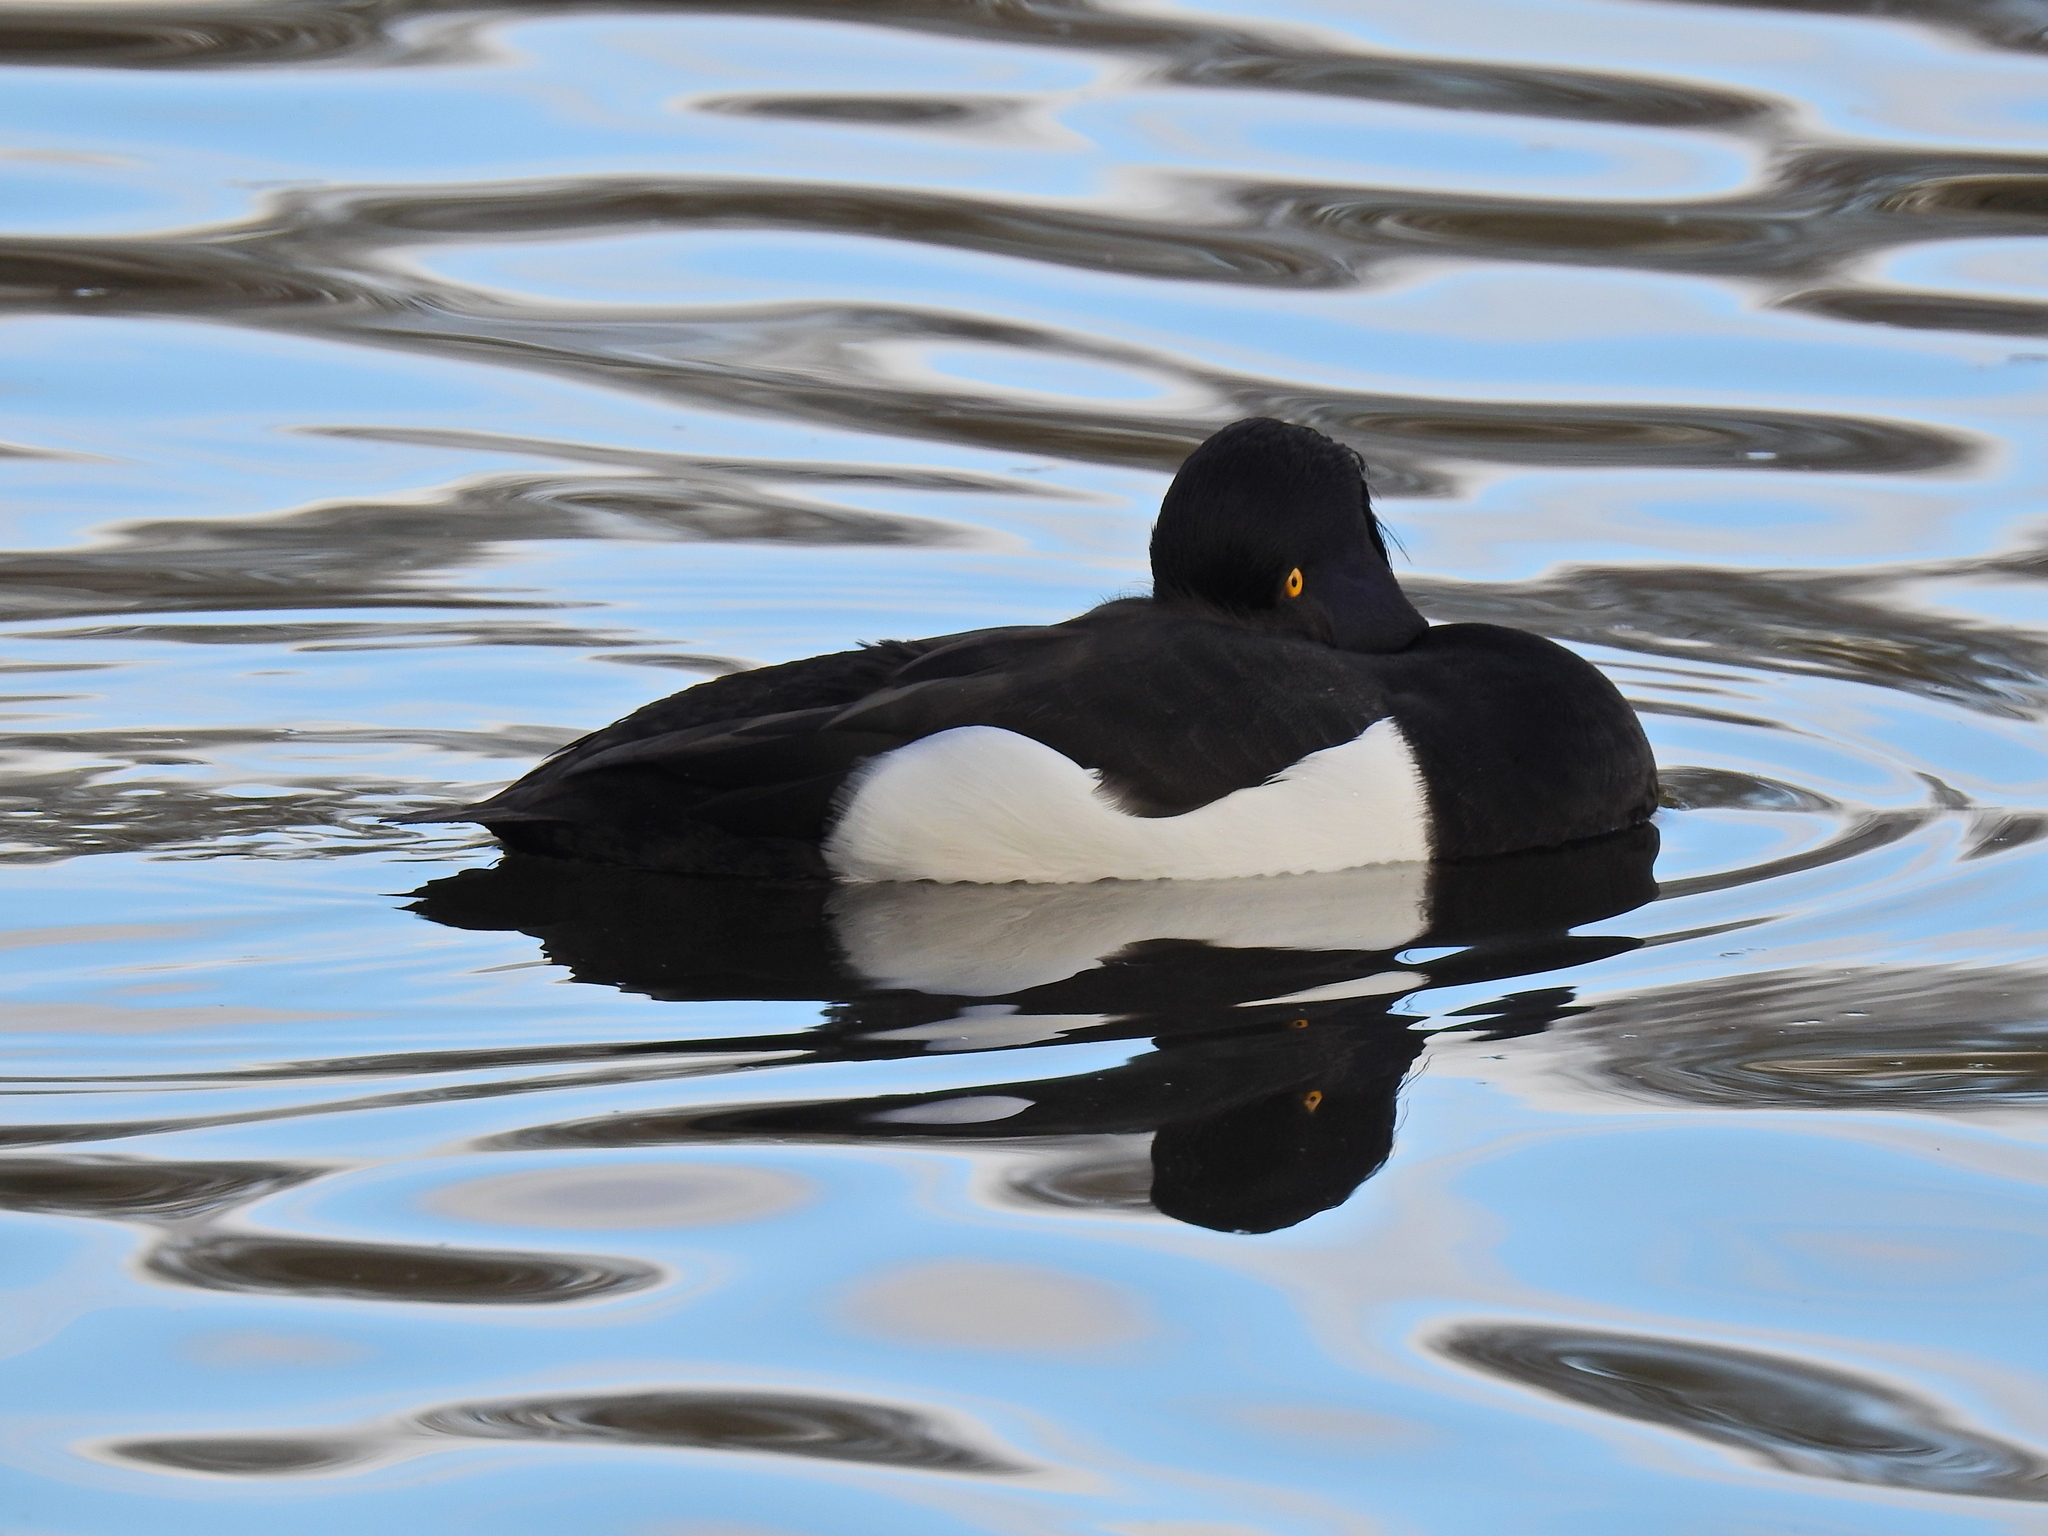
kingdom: Animalia
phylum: Chordata
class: Aves
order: Anseriformes
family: Anatidae
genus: Aythya
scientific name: Aythya fuligula
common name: Tufted duck
